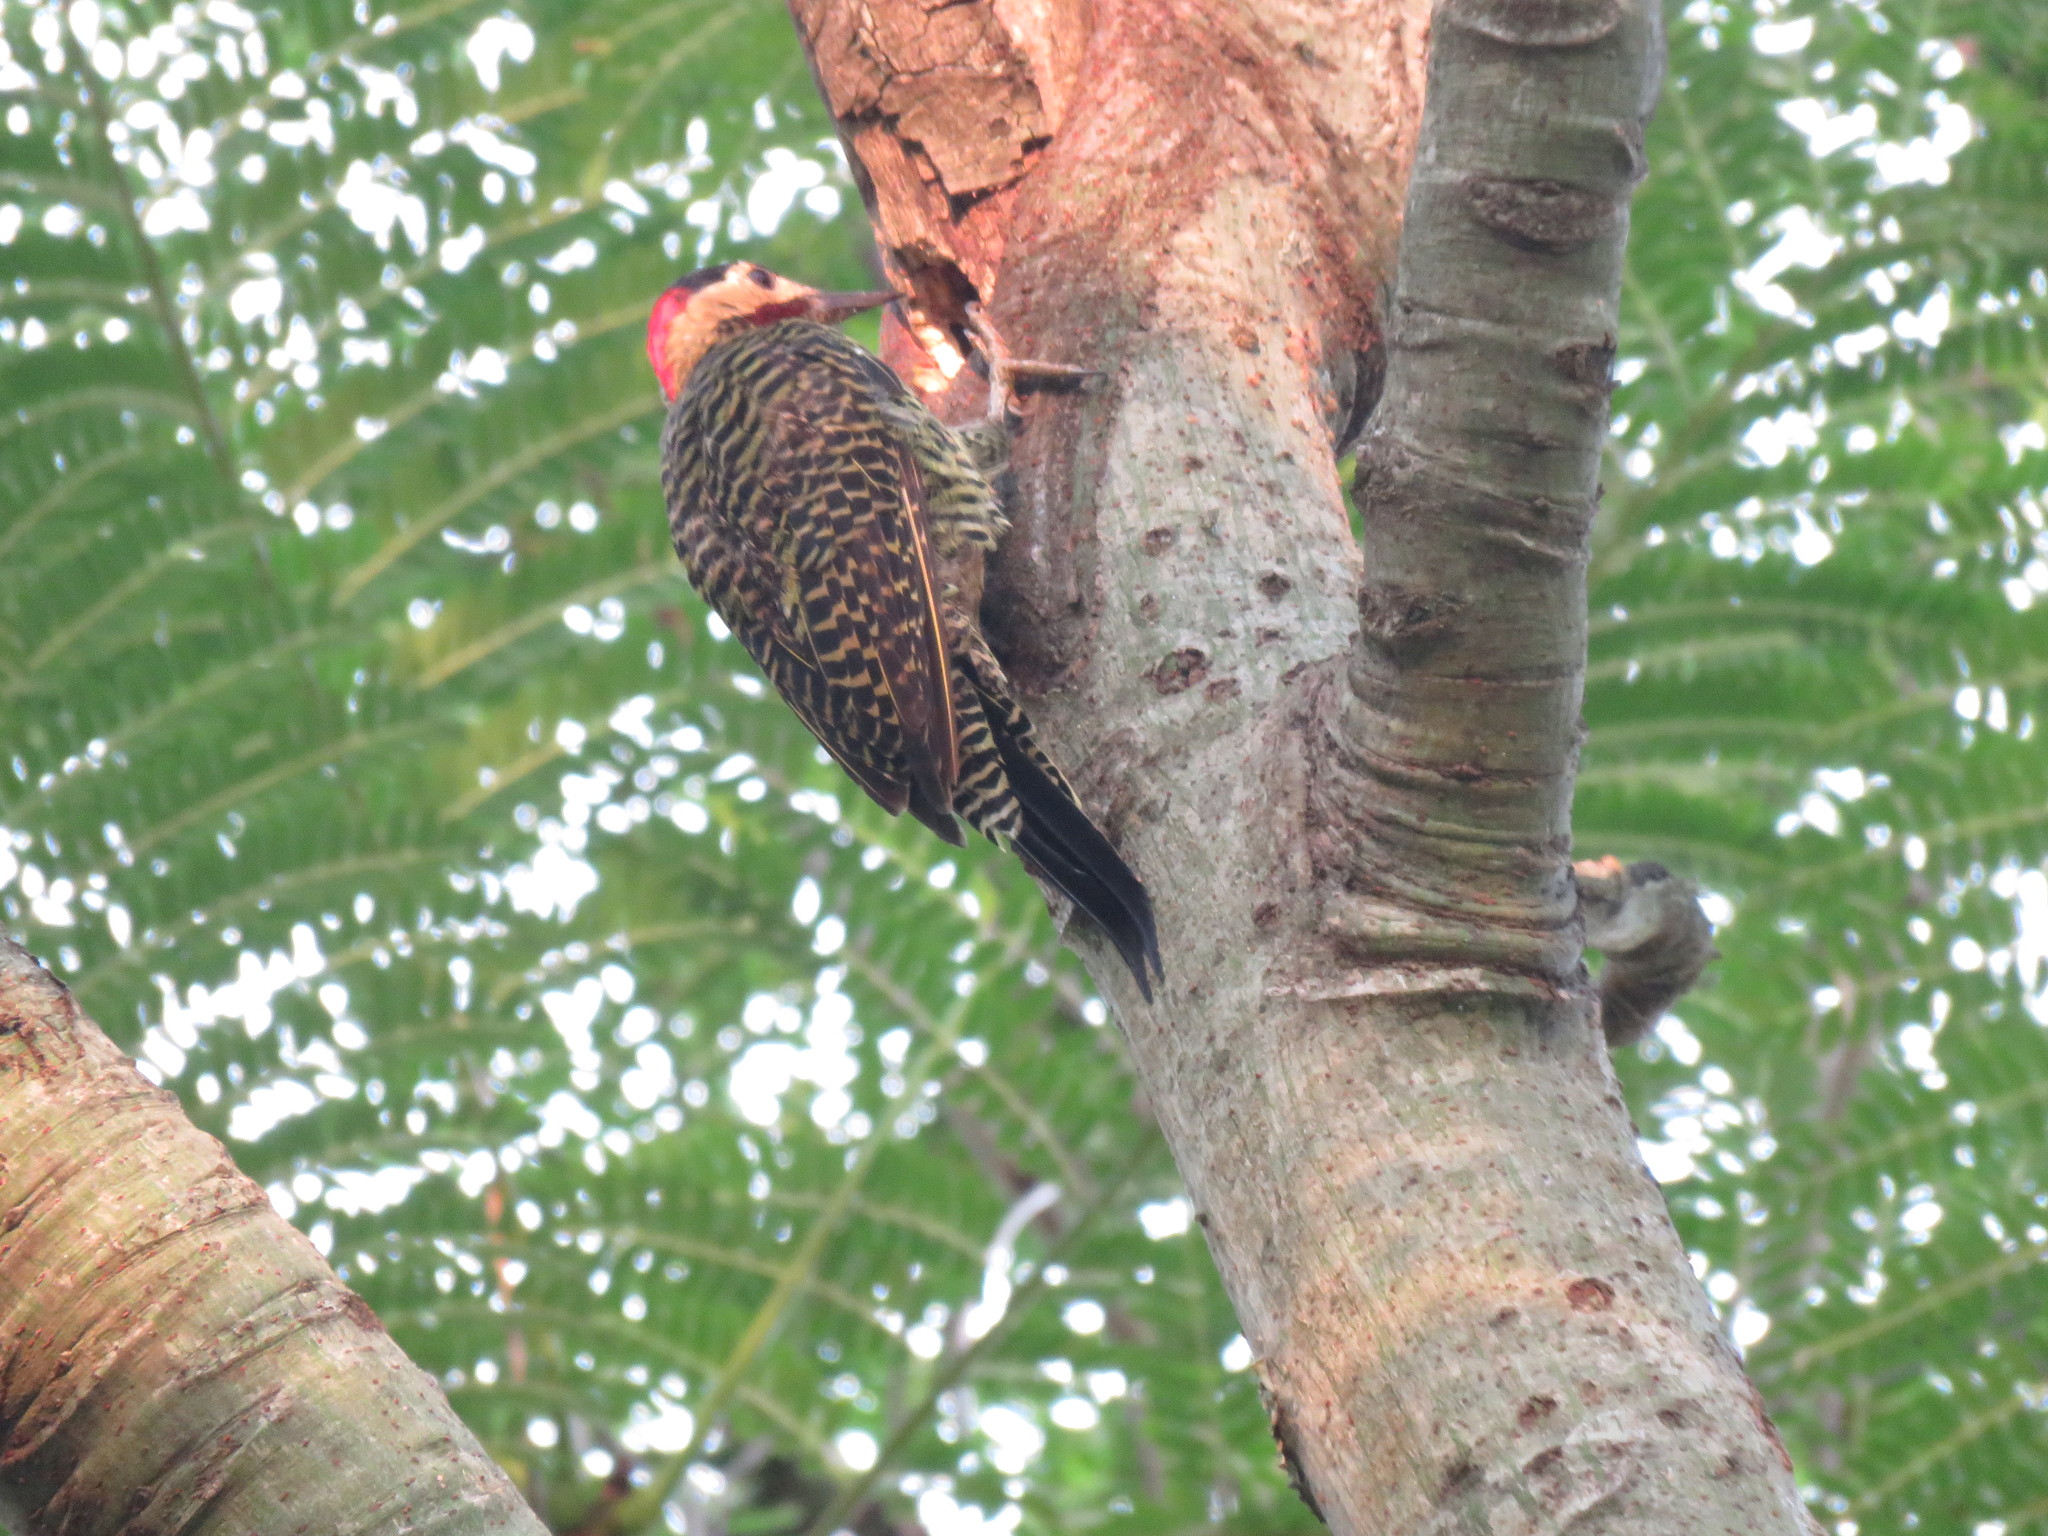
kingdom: Animalia
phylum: Chordata
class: Aves
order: Piciformes
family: Picidae
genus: Colaptes
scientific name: Colaptes melanochloros
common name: Green-barred woodpecker
